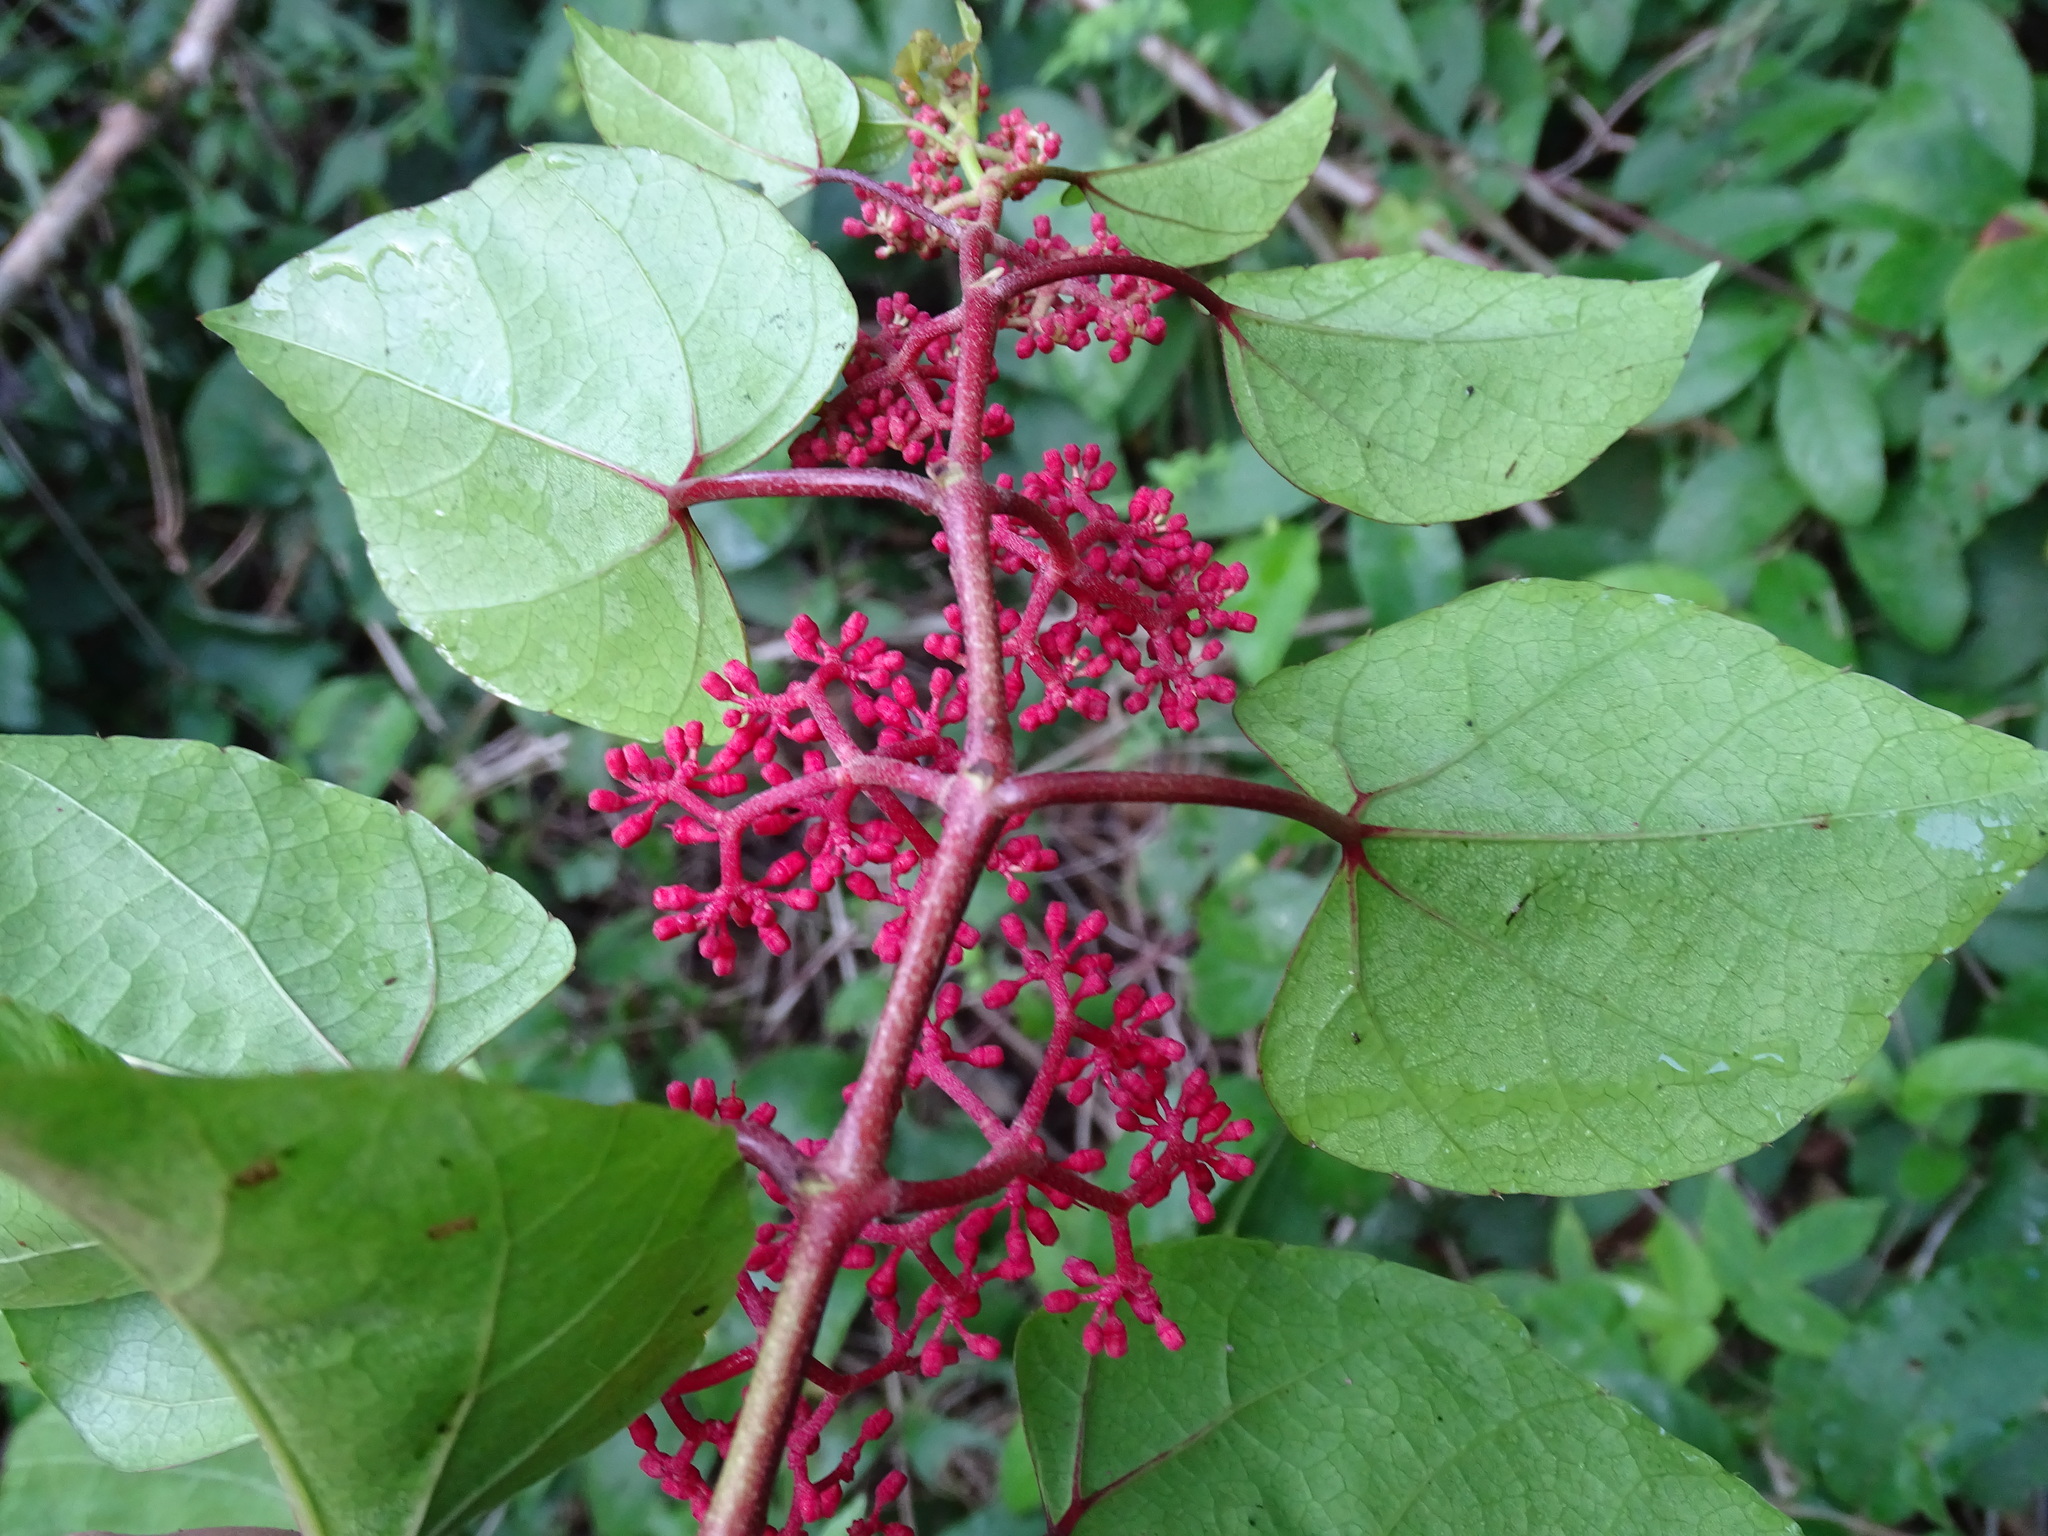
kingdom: Plantae
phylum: Tracheophyta
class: Magnoliopsida
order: Vitales
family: Vitaceae
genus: Cissus
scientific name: Cissus gossypiifolia
